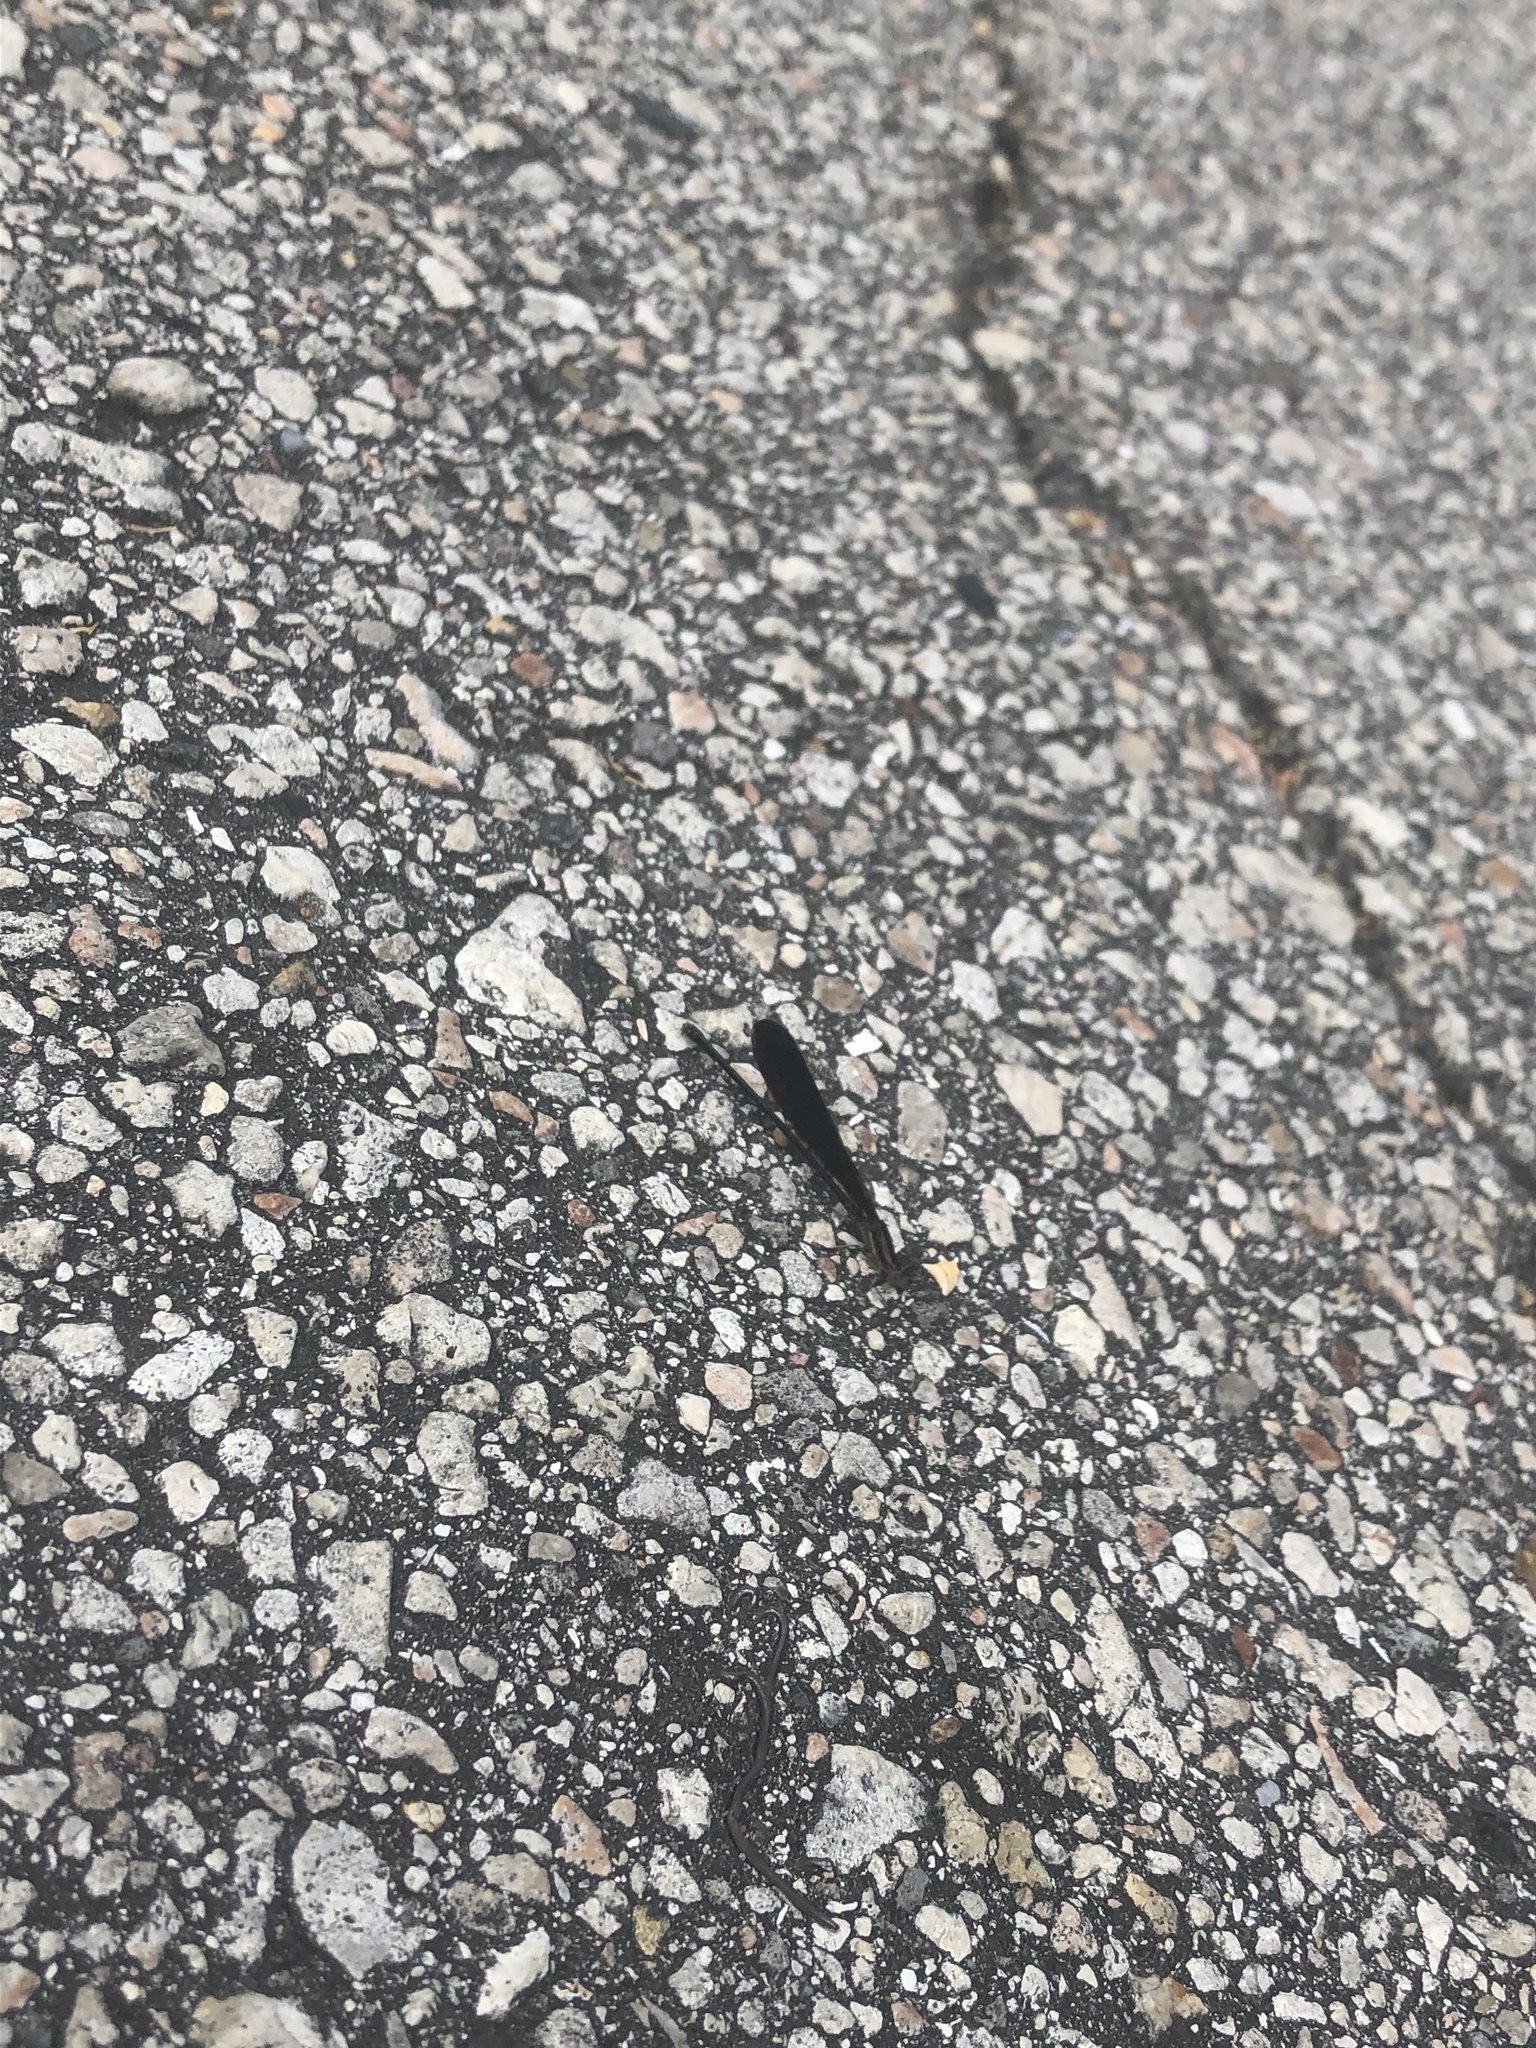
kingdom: Animalia
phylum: Arthropoda
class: Insecta
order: Odonata
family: Coenagrionidae
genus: Argia
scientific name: Argia fumipennis
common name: Variable dancer
